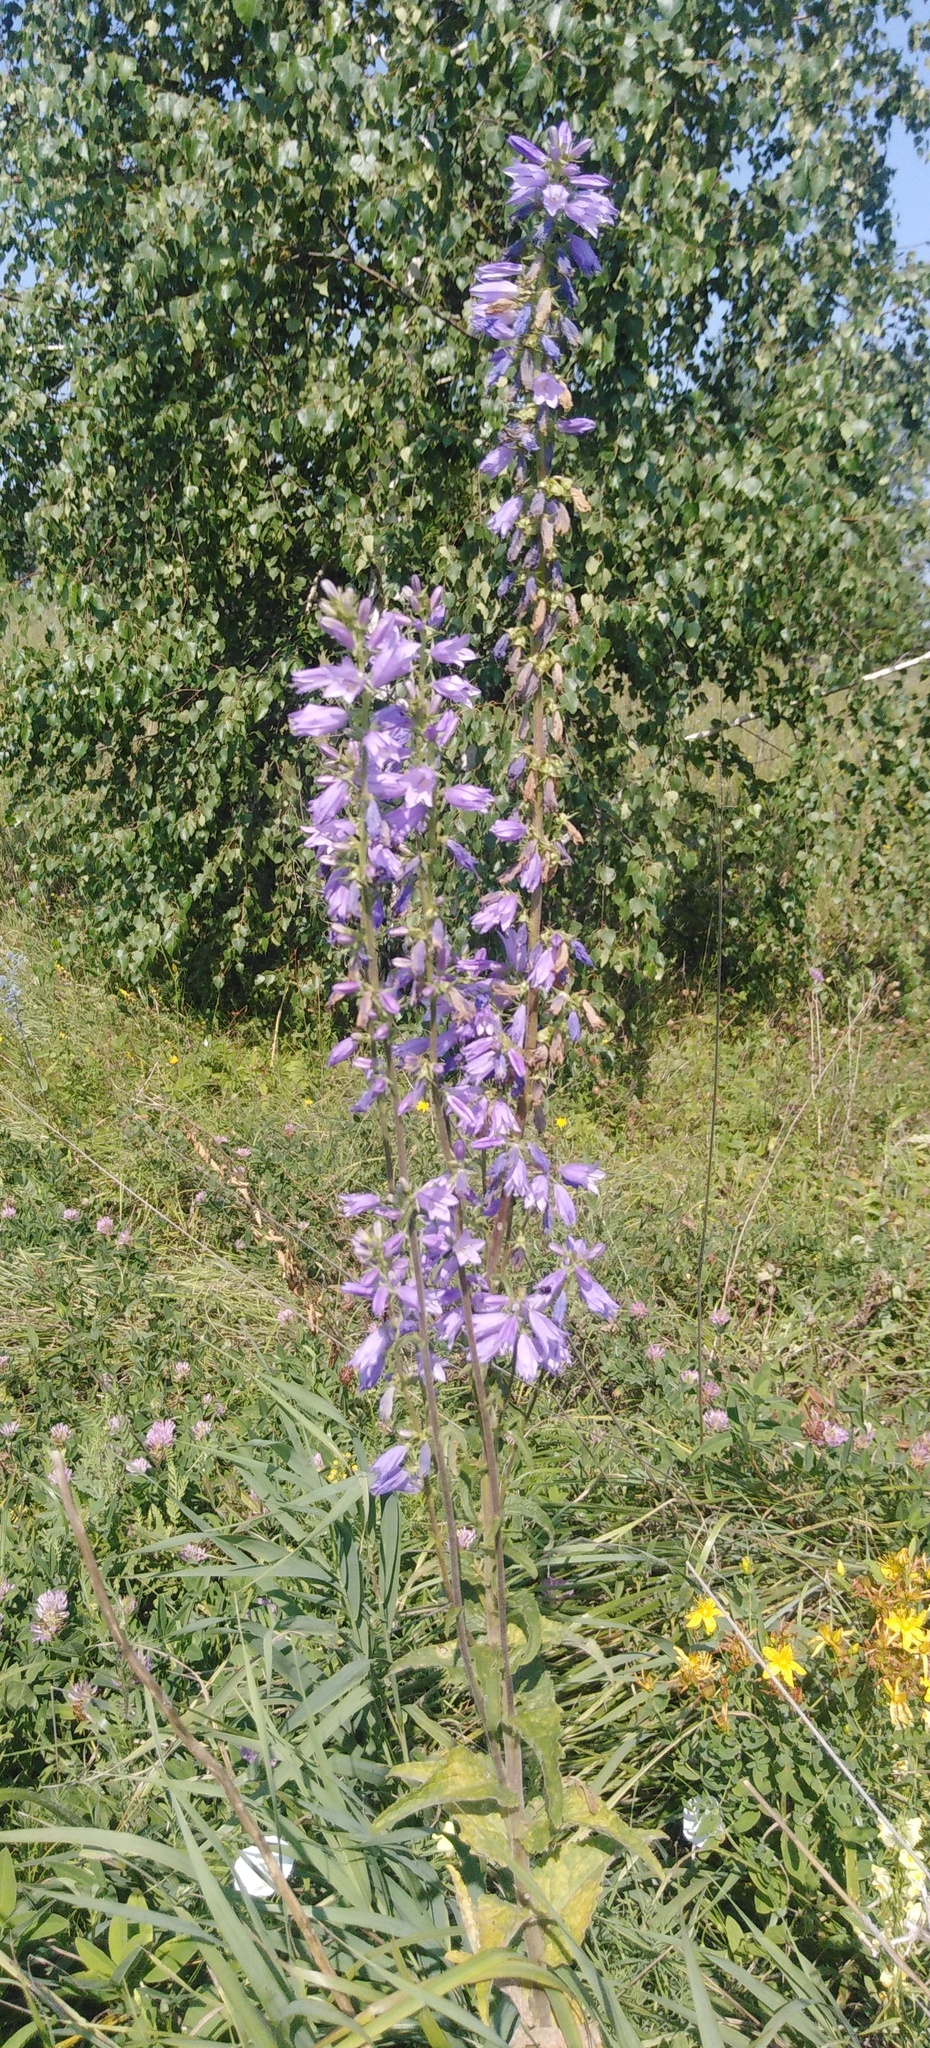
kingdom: Plantae
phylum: Tracheophyta
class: Magnoliopsida
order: Asterales
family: Campanulaceae
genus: Campanula
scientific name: Campanula bononiensis
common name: Pale bellflower
